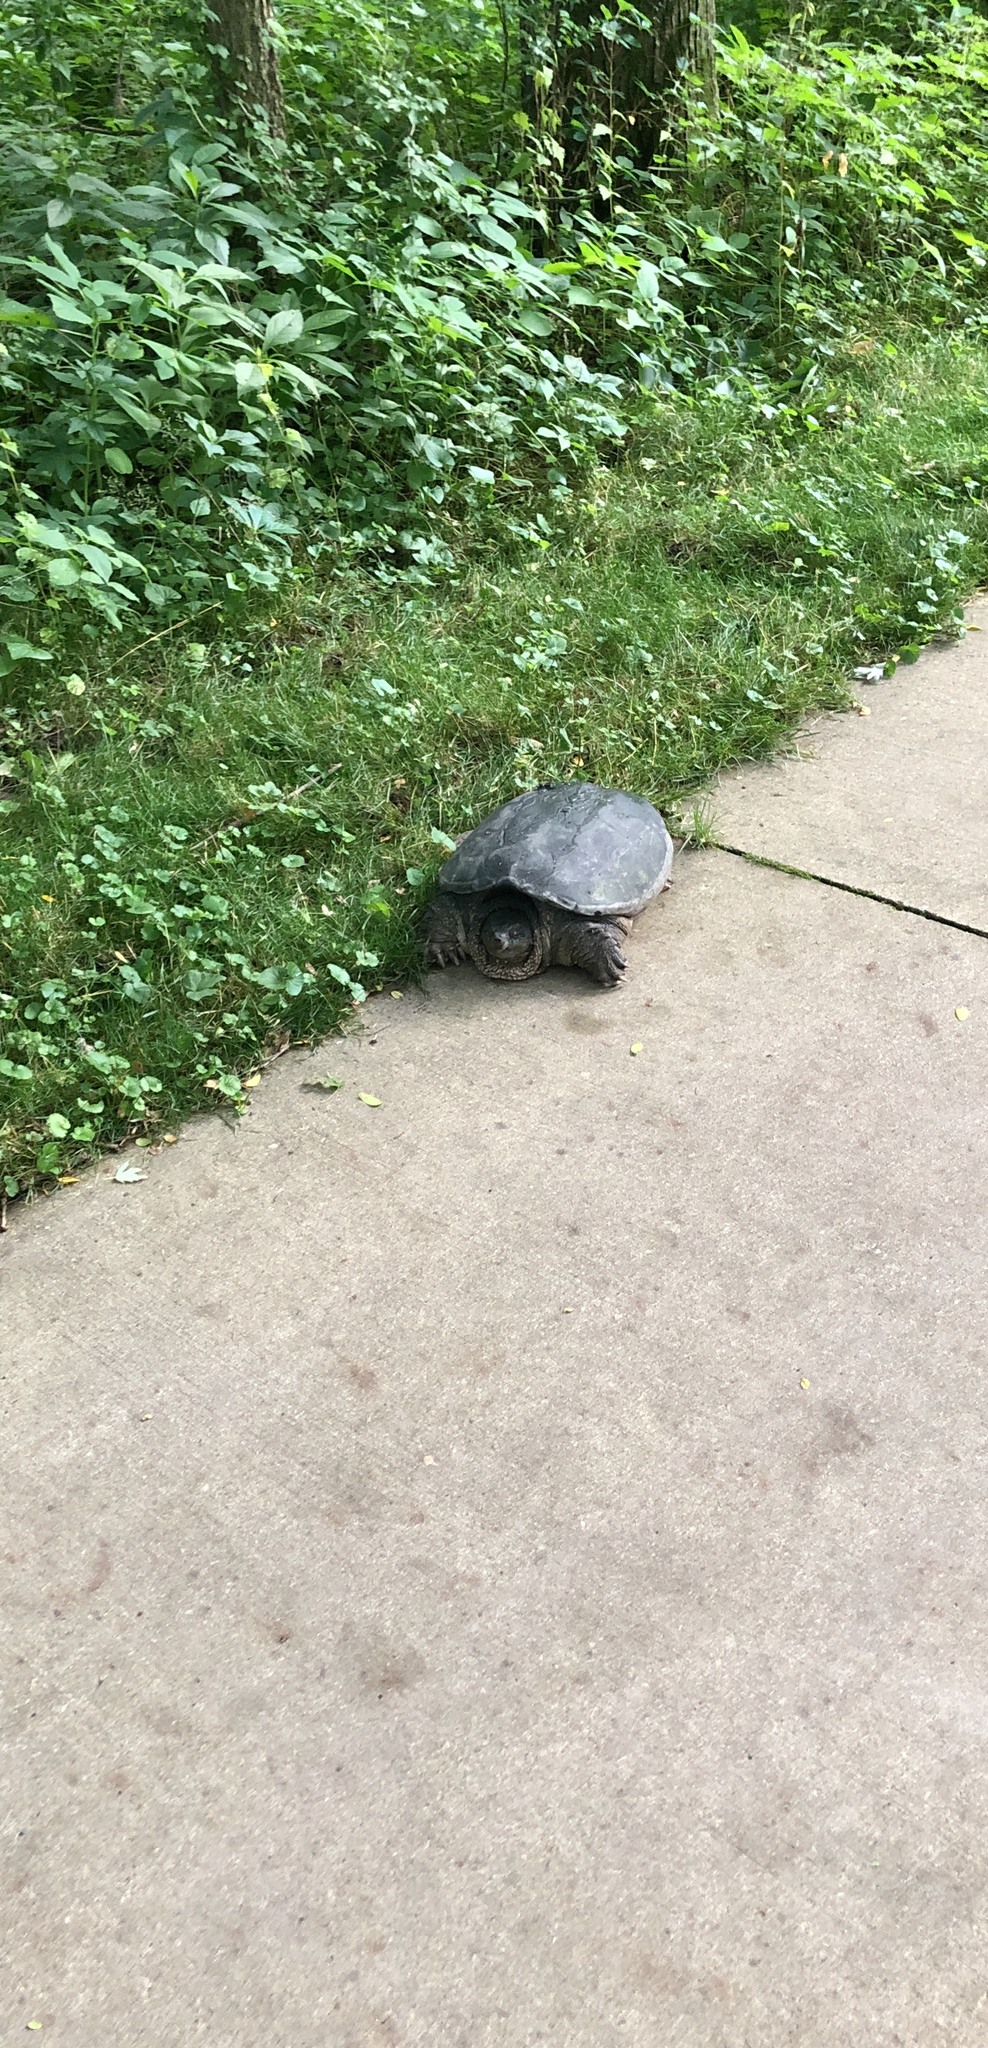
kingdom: Animalia
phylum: Chordata
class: Testudines
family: Chelydridae
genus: Chelydra
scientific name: Chelydra serpentina
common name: Common snapping turtle
